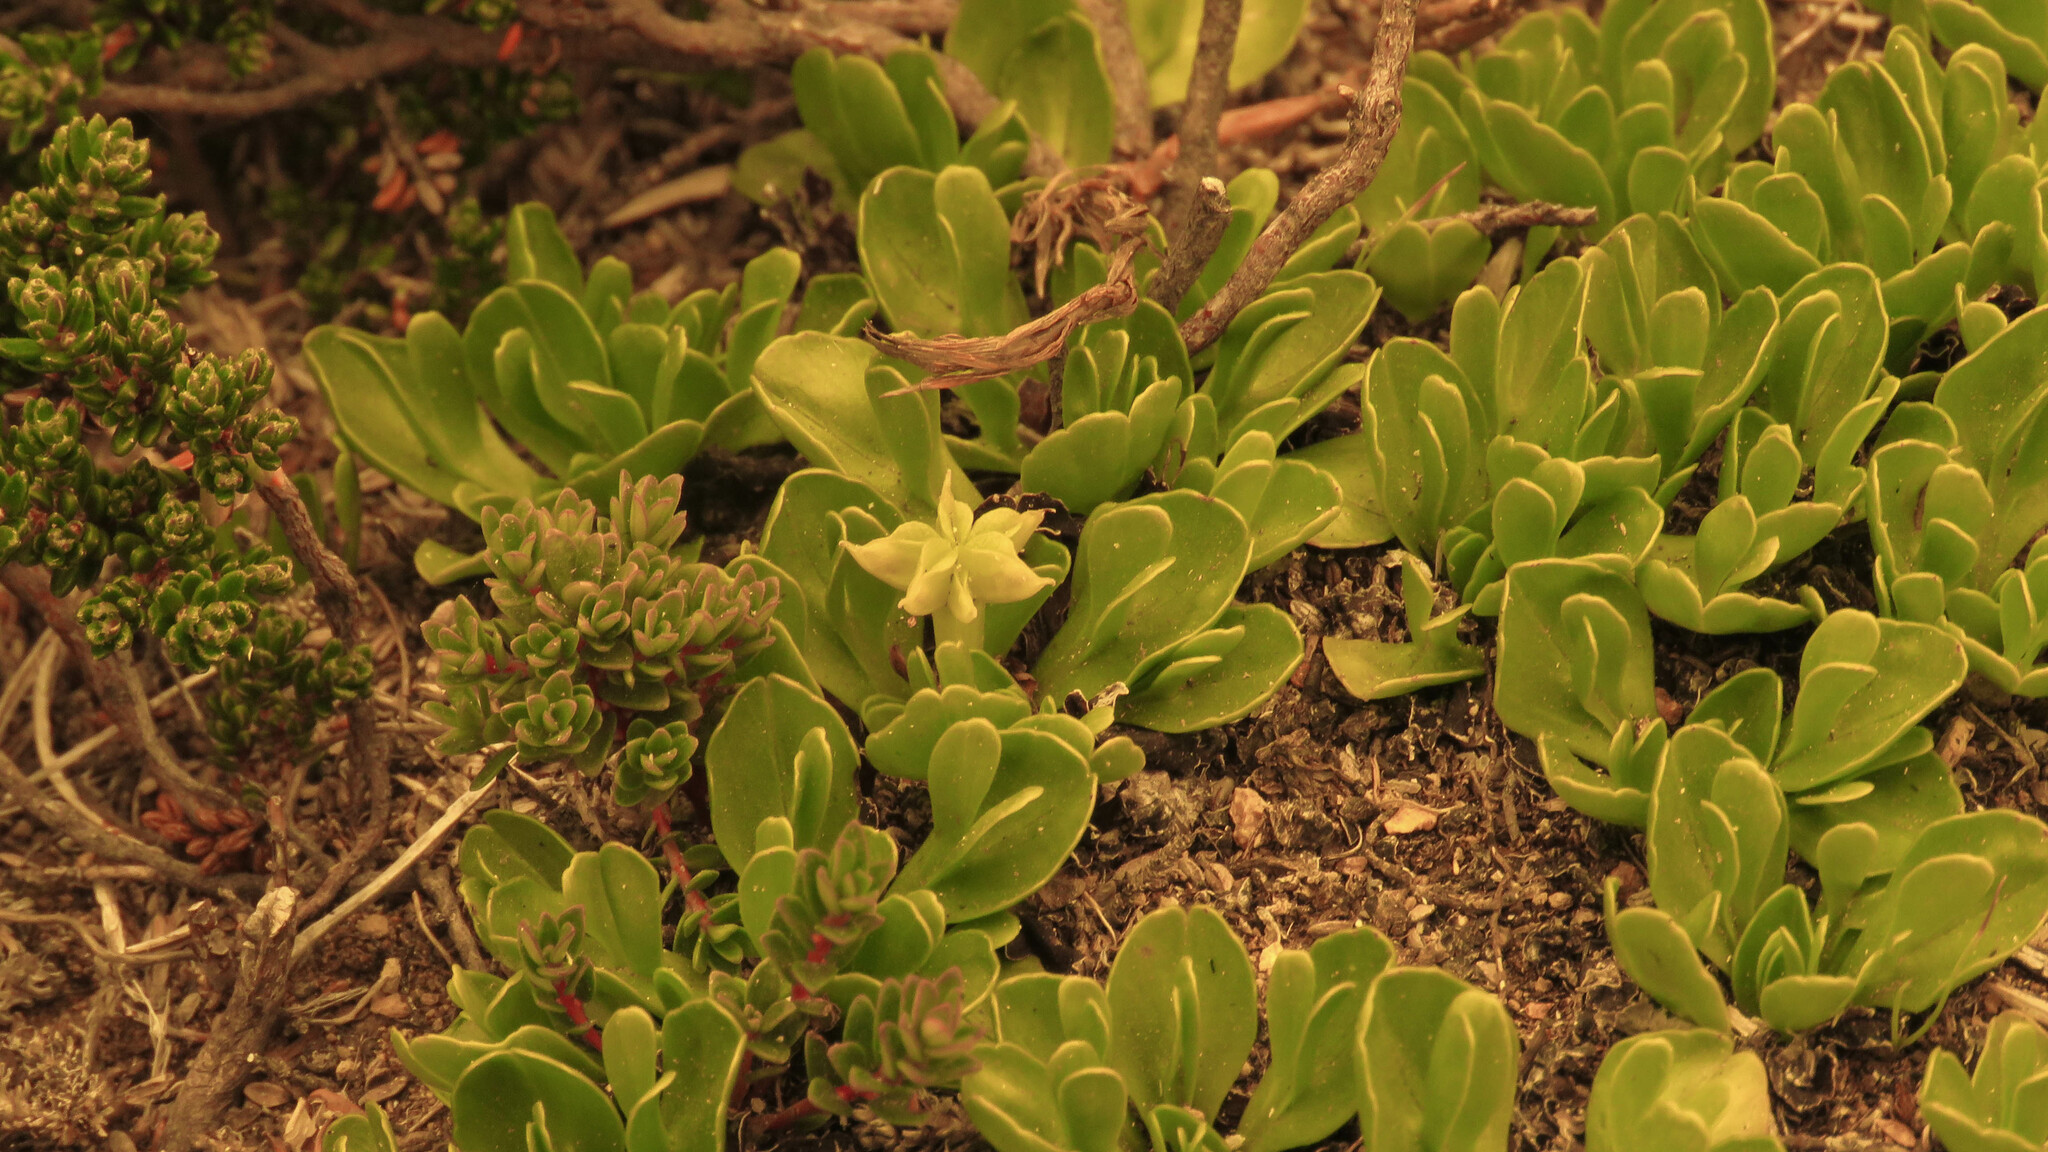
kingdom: Plantae
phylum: Tracheophyta
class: Magnoliopsida
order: Ranunculales
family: Ranunculaceae
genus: Caltha
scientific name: Caltha appendiculata
